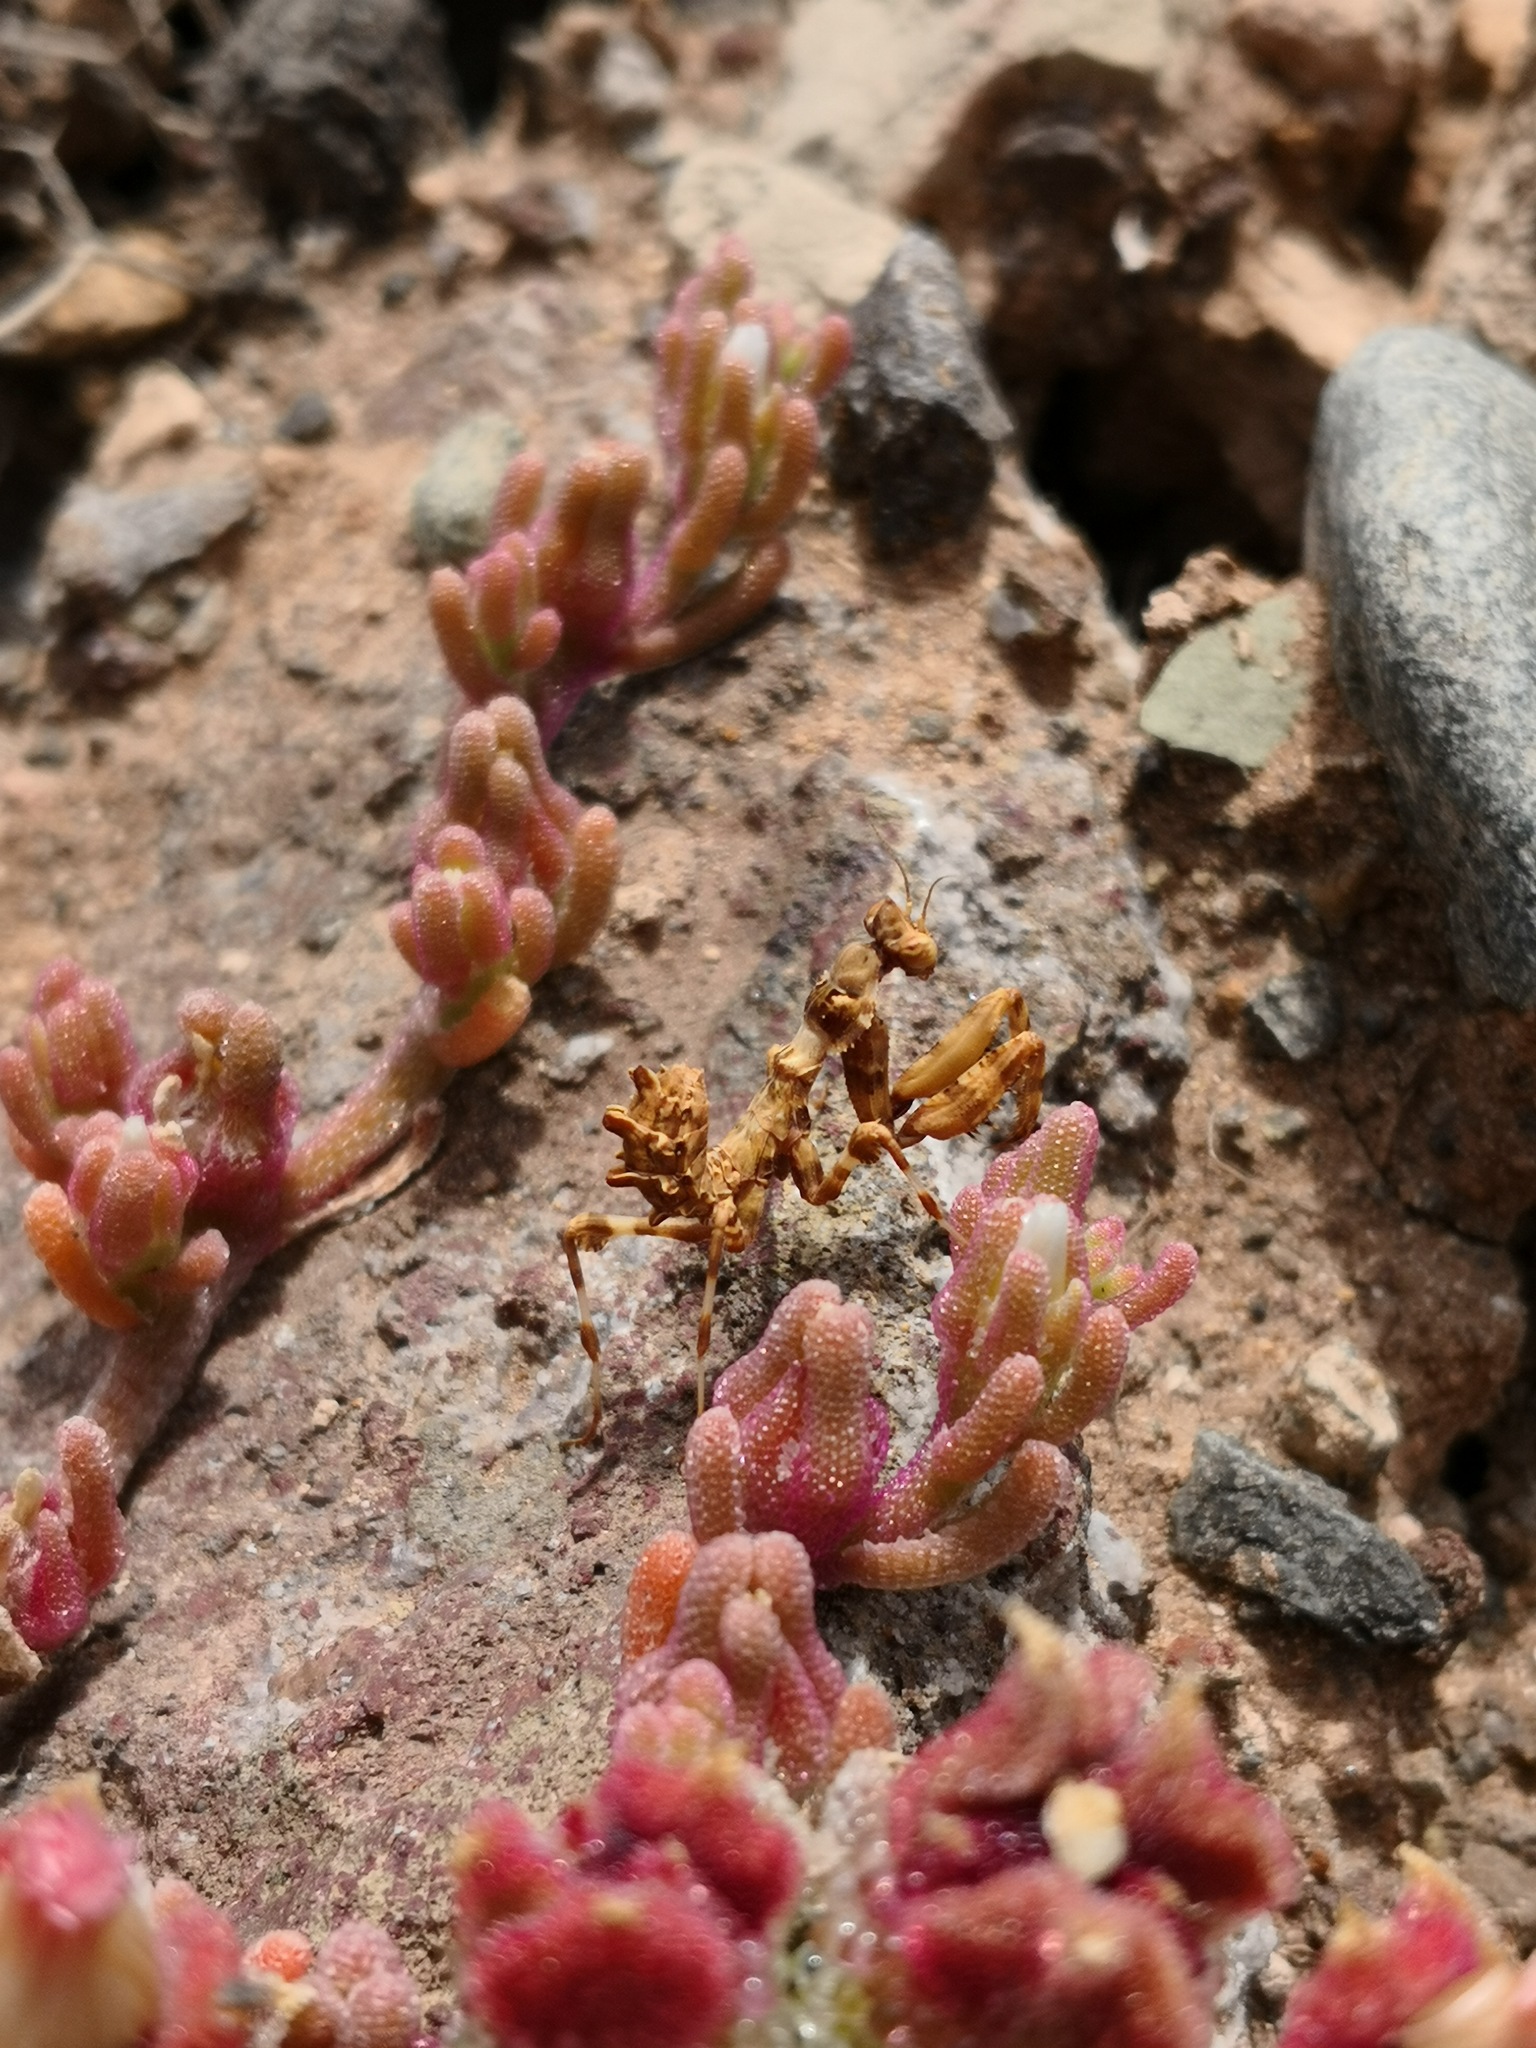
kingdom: Animalia
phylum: Arthropoda
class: Insecta
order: Mantodea
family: Empusidae
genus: Blepharopsis
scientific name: Blepharopsis mendica
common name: Devil's flower mantis
